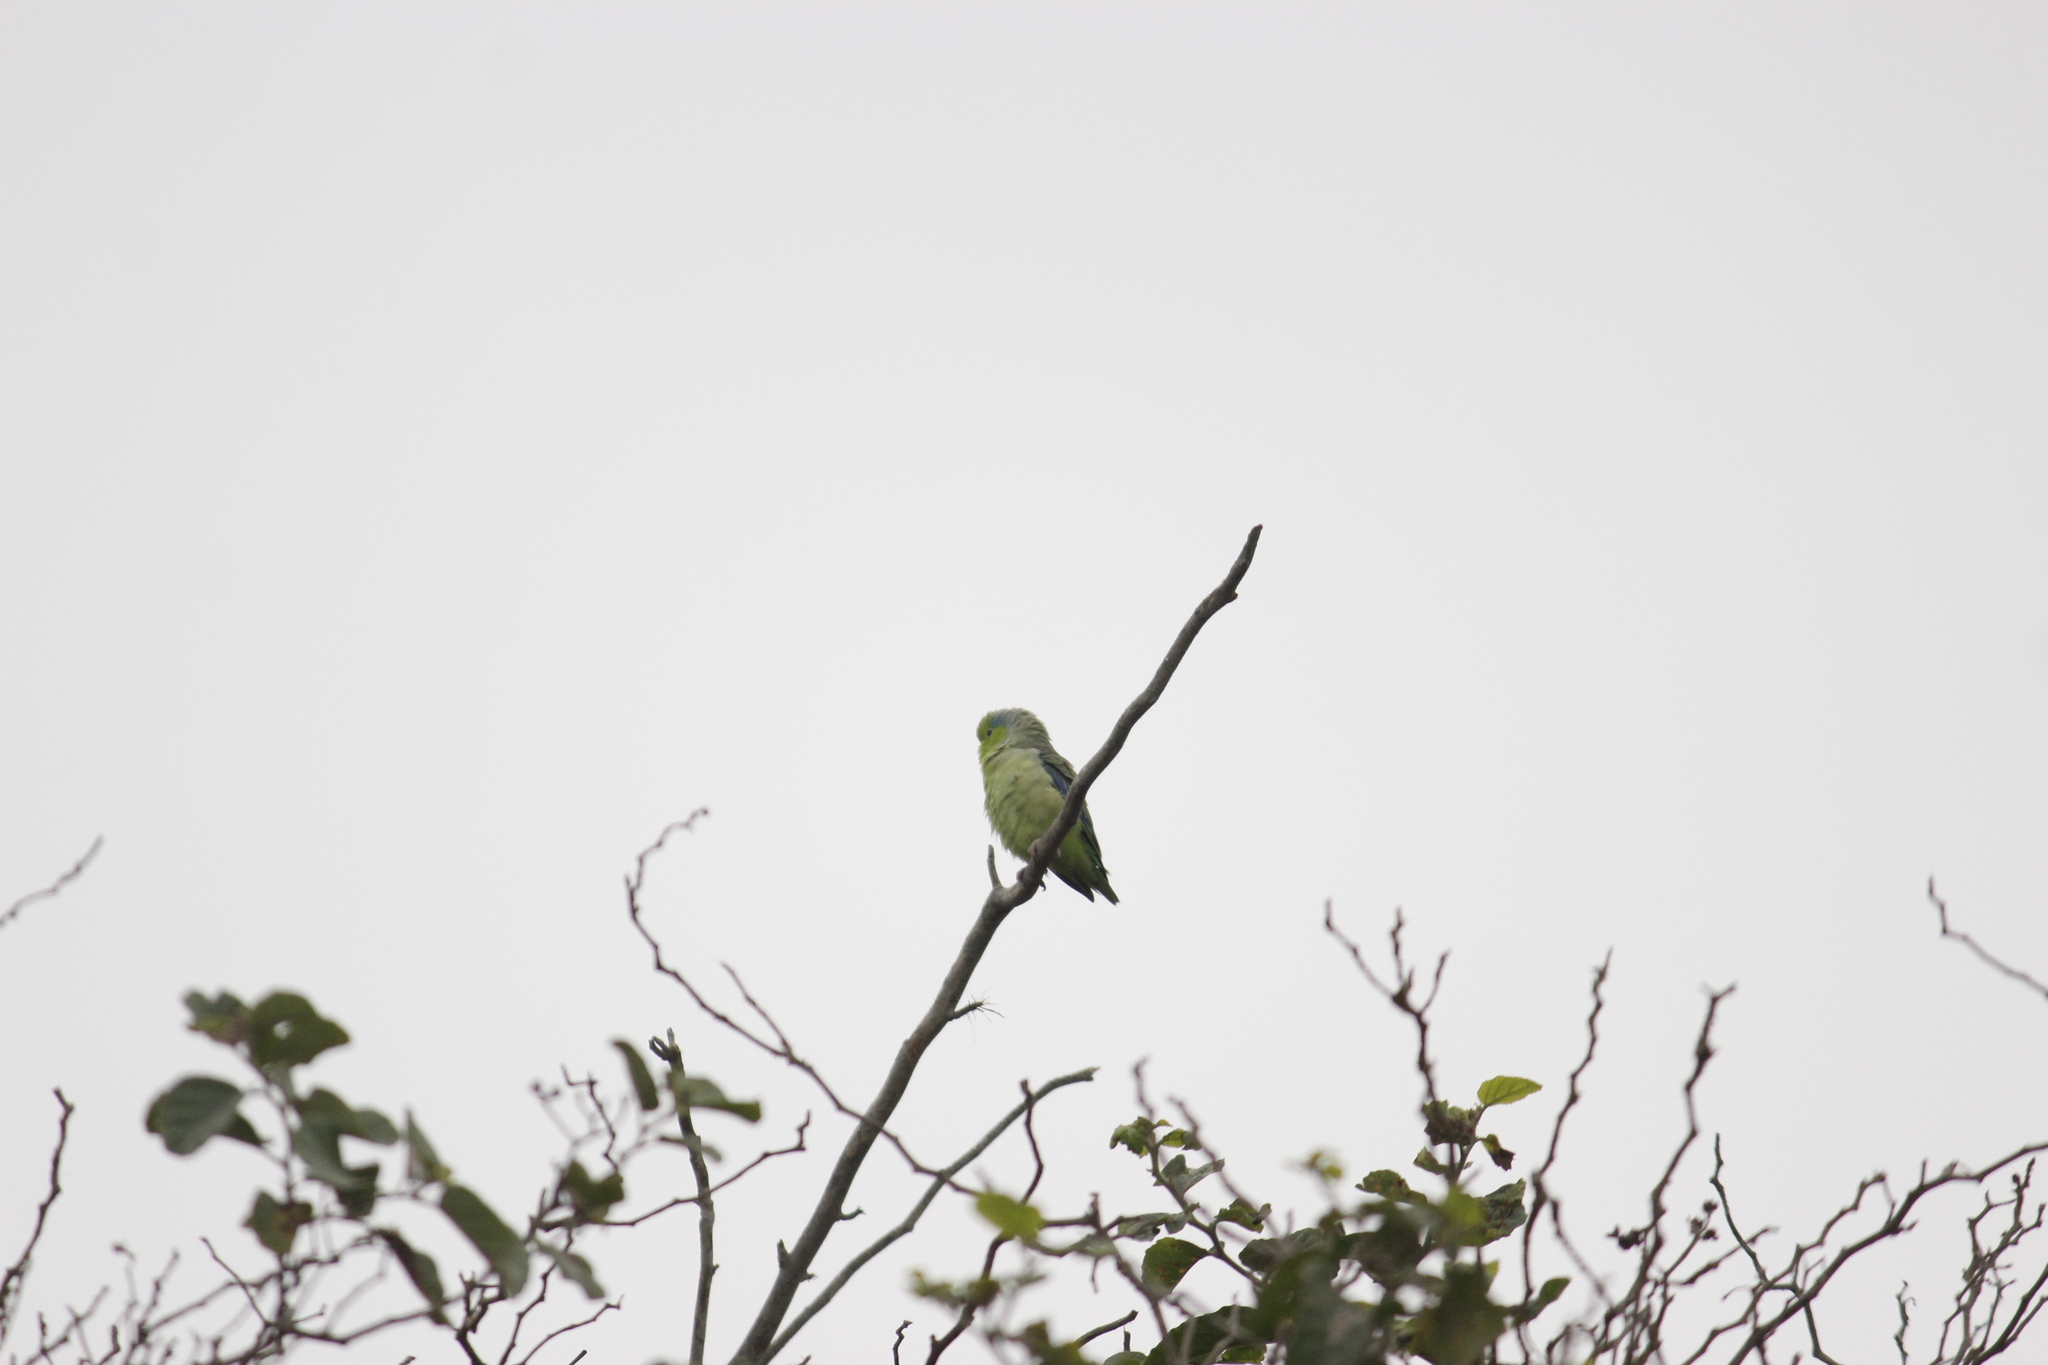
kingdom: Animalia
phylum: Chordata
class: Aves
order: Psittaciformes
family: Psittacidae
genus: Forpus
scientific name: Forpus coelestis
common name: Pacific parrotlet
